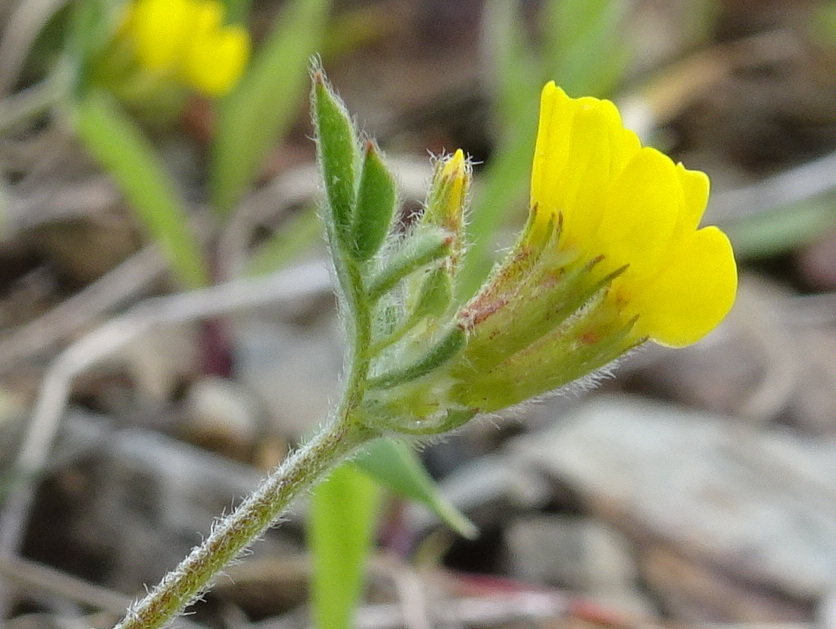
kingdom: Plantae
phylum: Tracheophyta
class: Magnoliopsida
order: Fabales
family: Fabaceae
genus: Ornithopus
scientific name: Ornithopus compressus
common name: Yellow serradella
